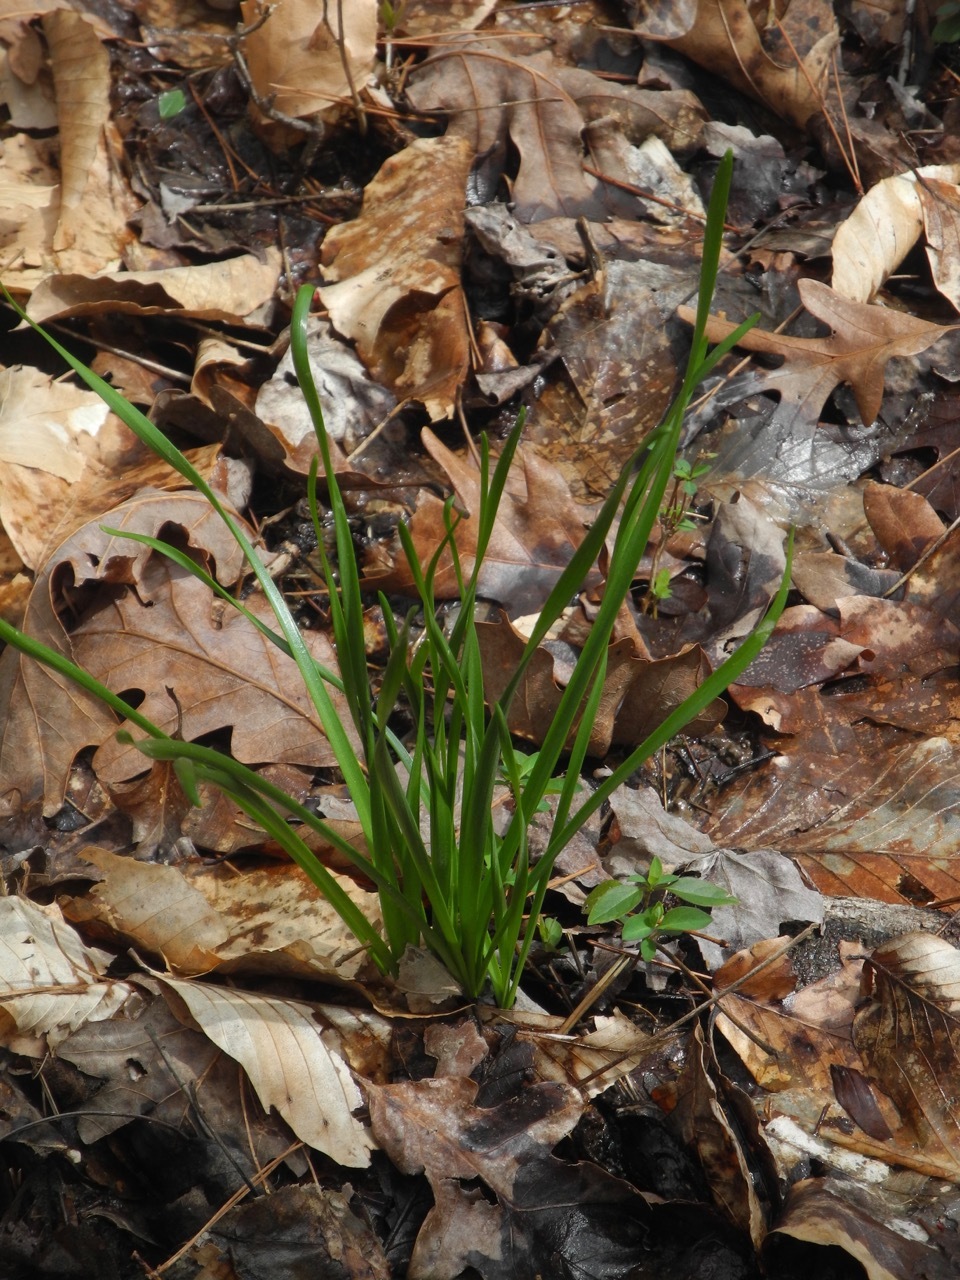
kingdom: Plantae
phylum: Tracheophyta
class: Liliopsida
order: Asparagales
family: Amaryllidaceae
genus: Zephyranthes
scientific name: Zephyranthes atamasco
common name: Atamasco lily
